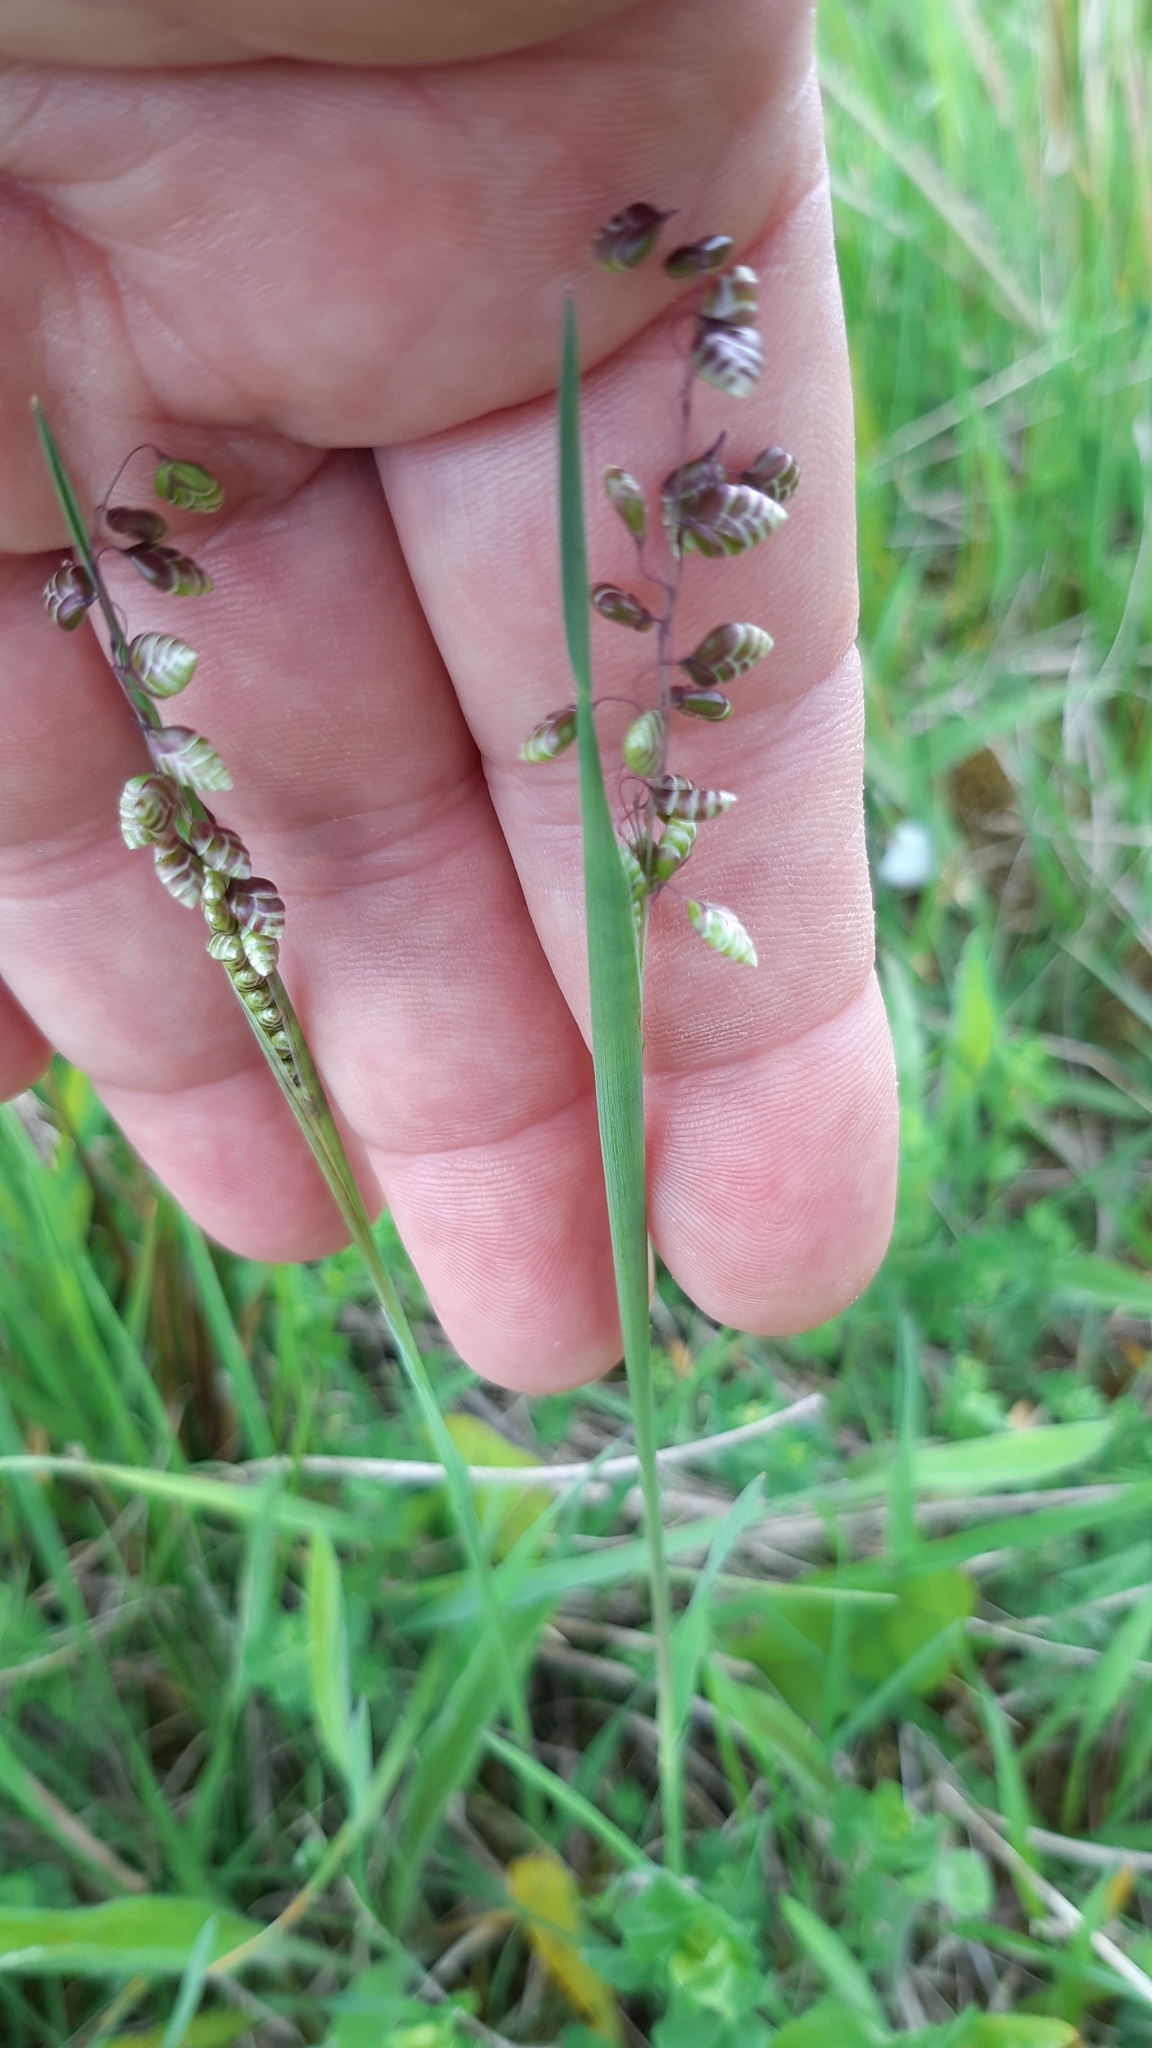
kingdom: Plantae
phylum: Tracheophyta
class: Liliopsida
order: Poales
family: Poaceae
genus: Briza
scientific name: Briza media
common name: Quaking grass
